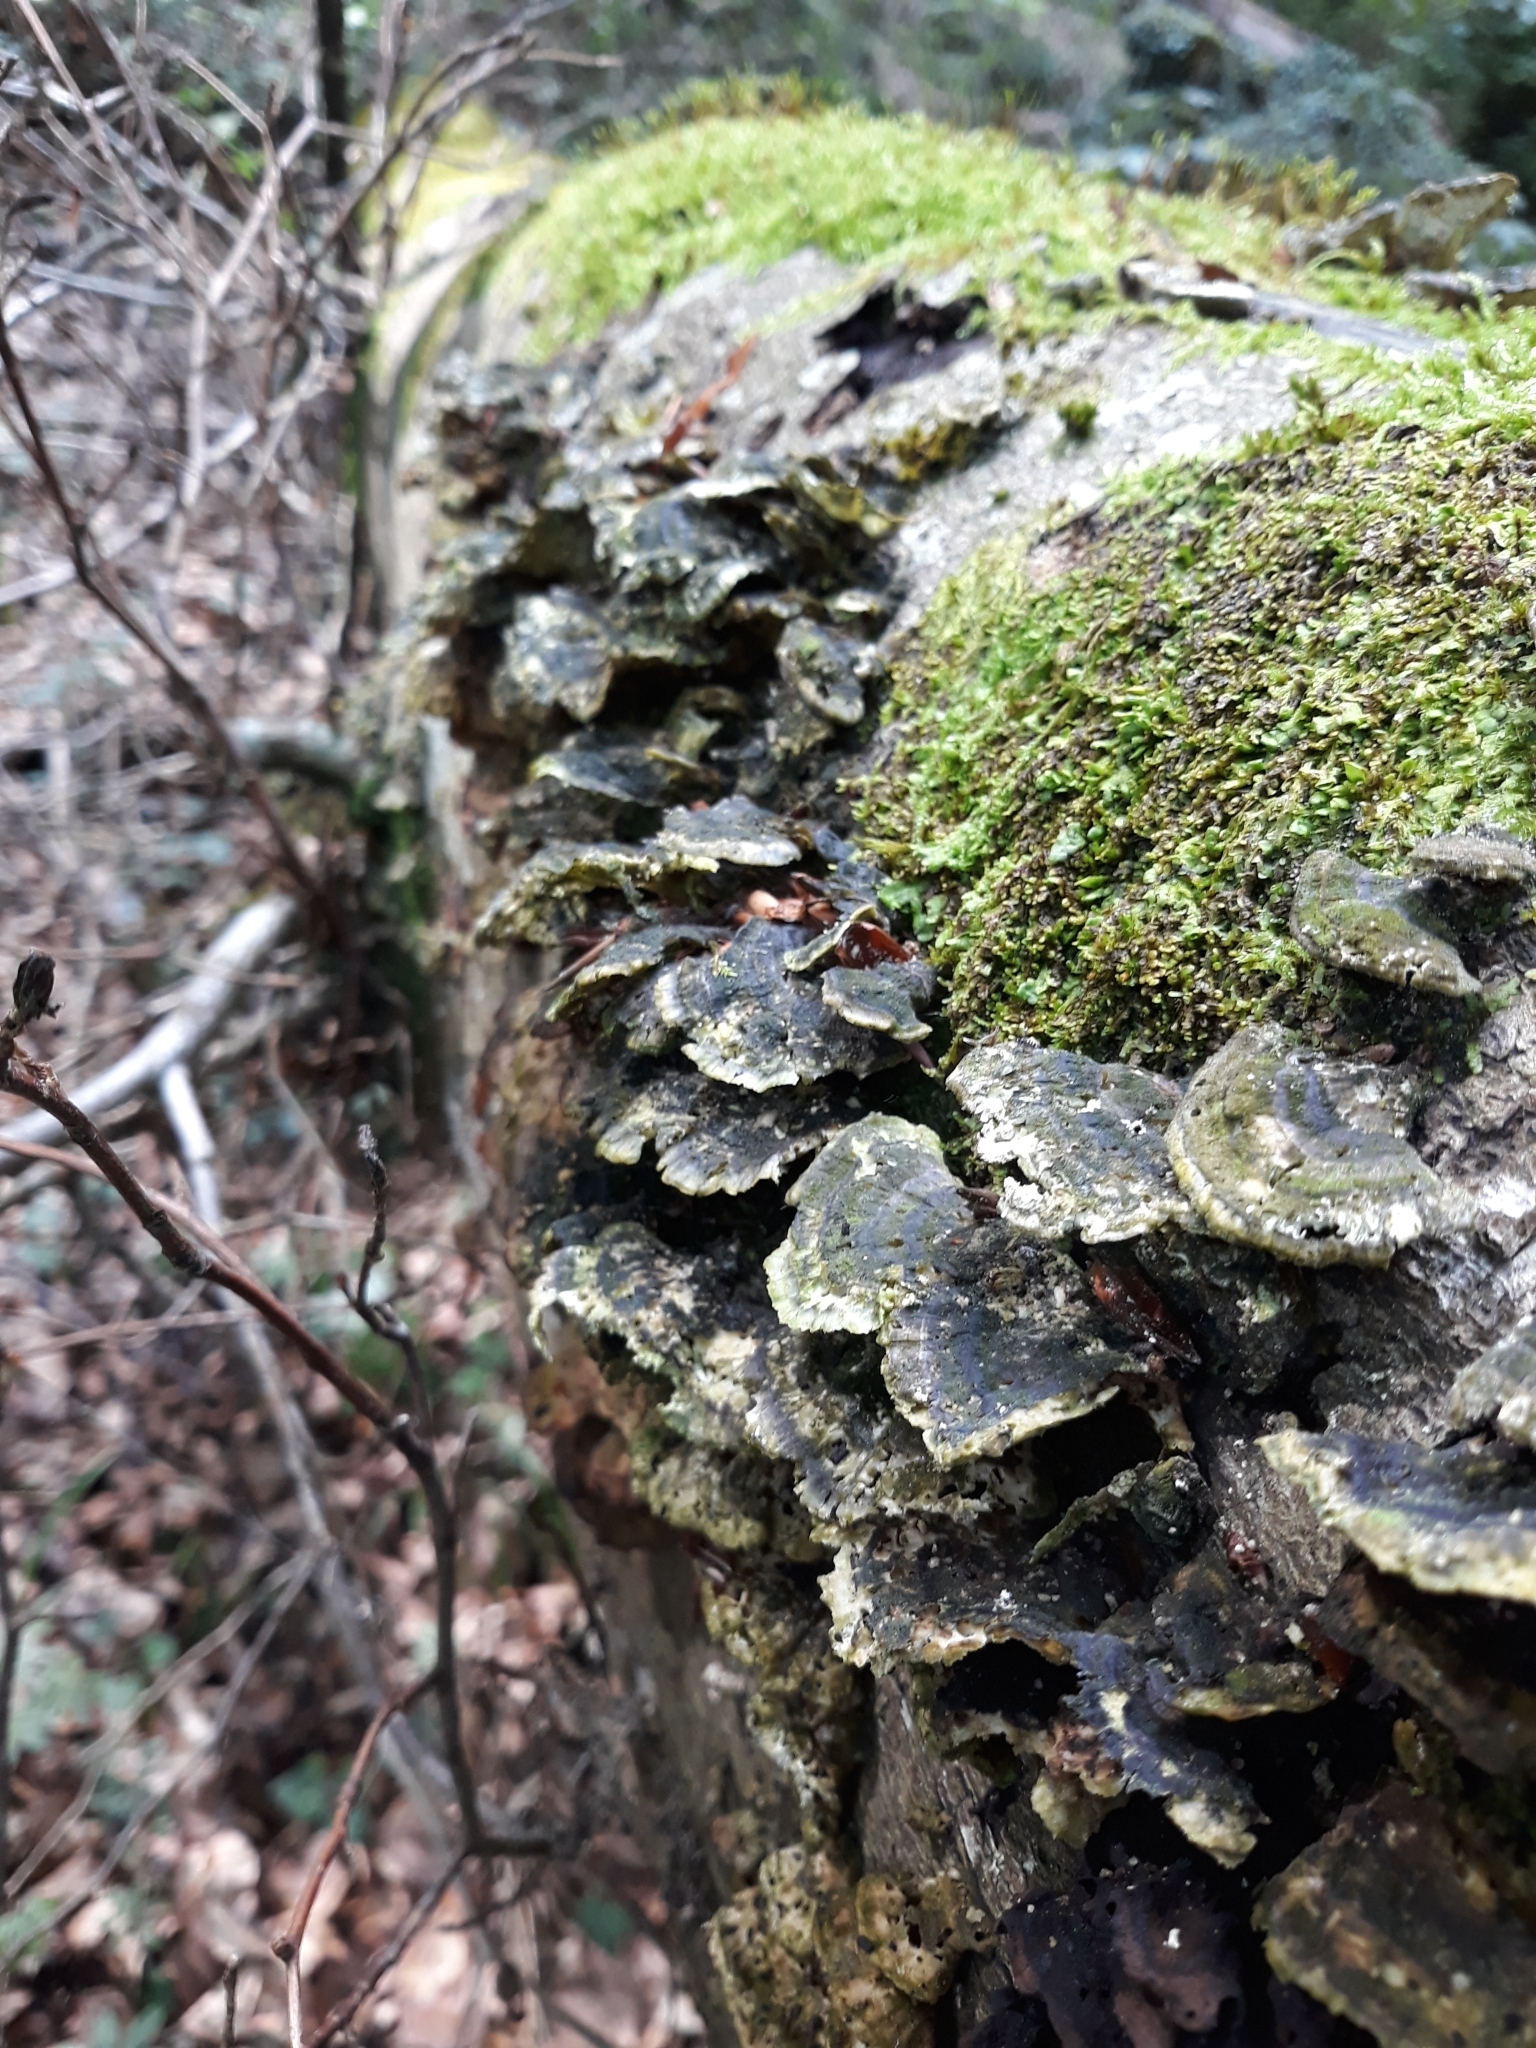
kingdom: Fungi
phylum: Basidiomycota
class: Agaricomycetes
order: Polyporales
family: Polyporaceae
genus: Trametes
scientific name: Trametes versicolor
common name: Turkeytail
